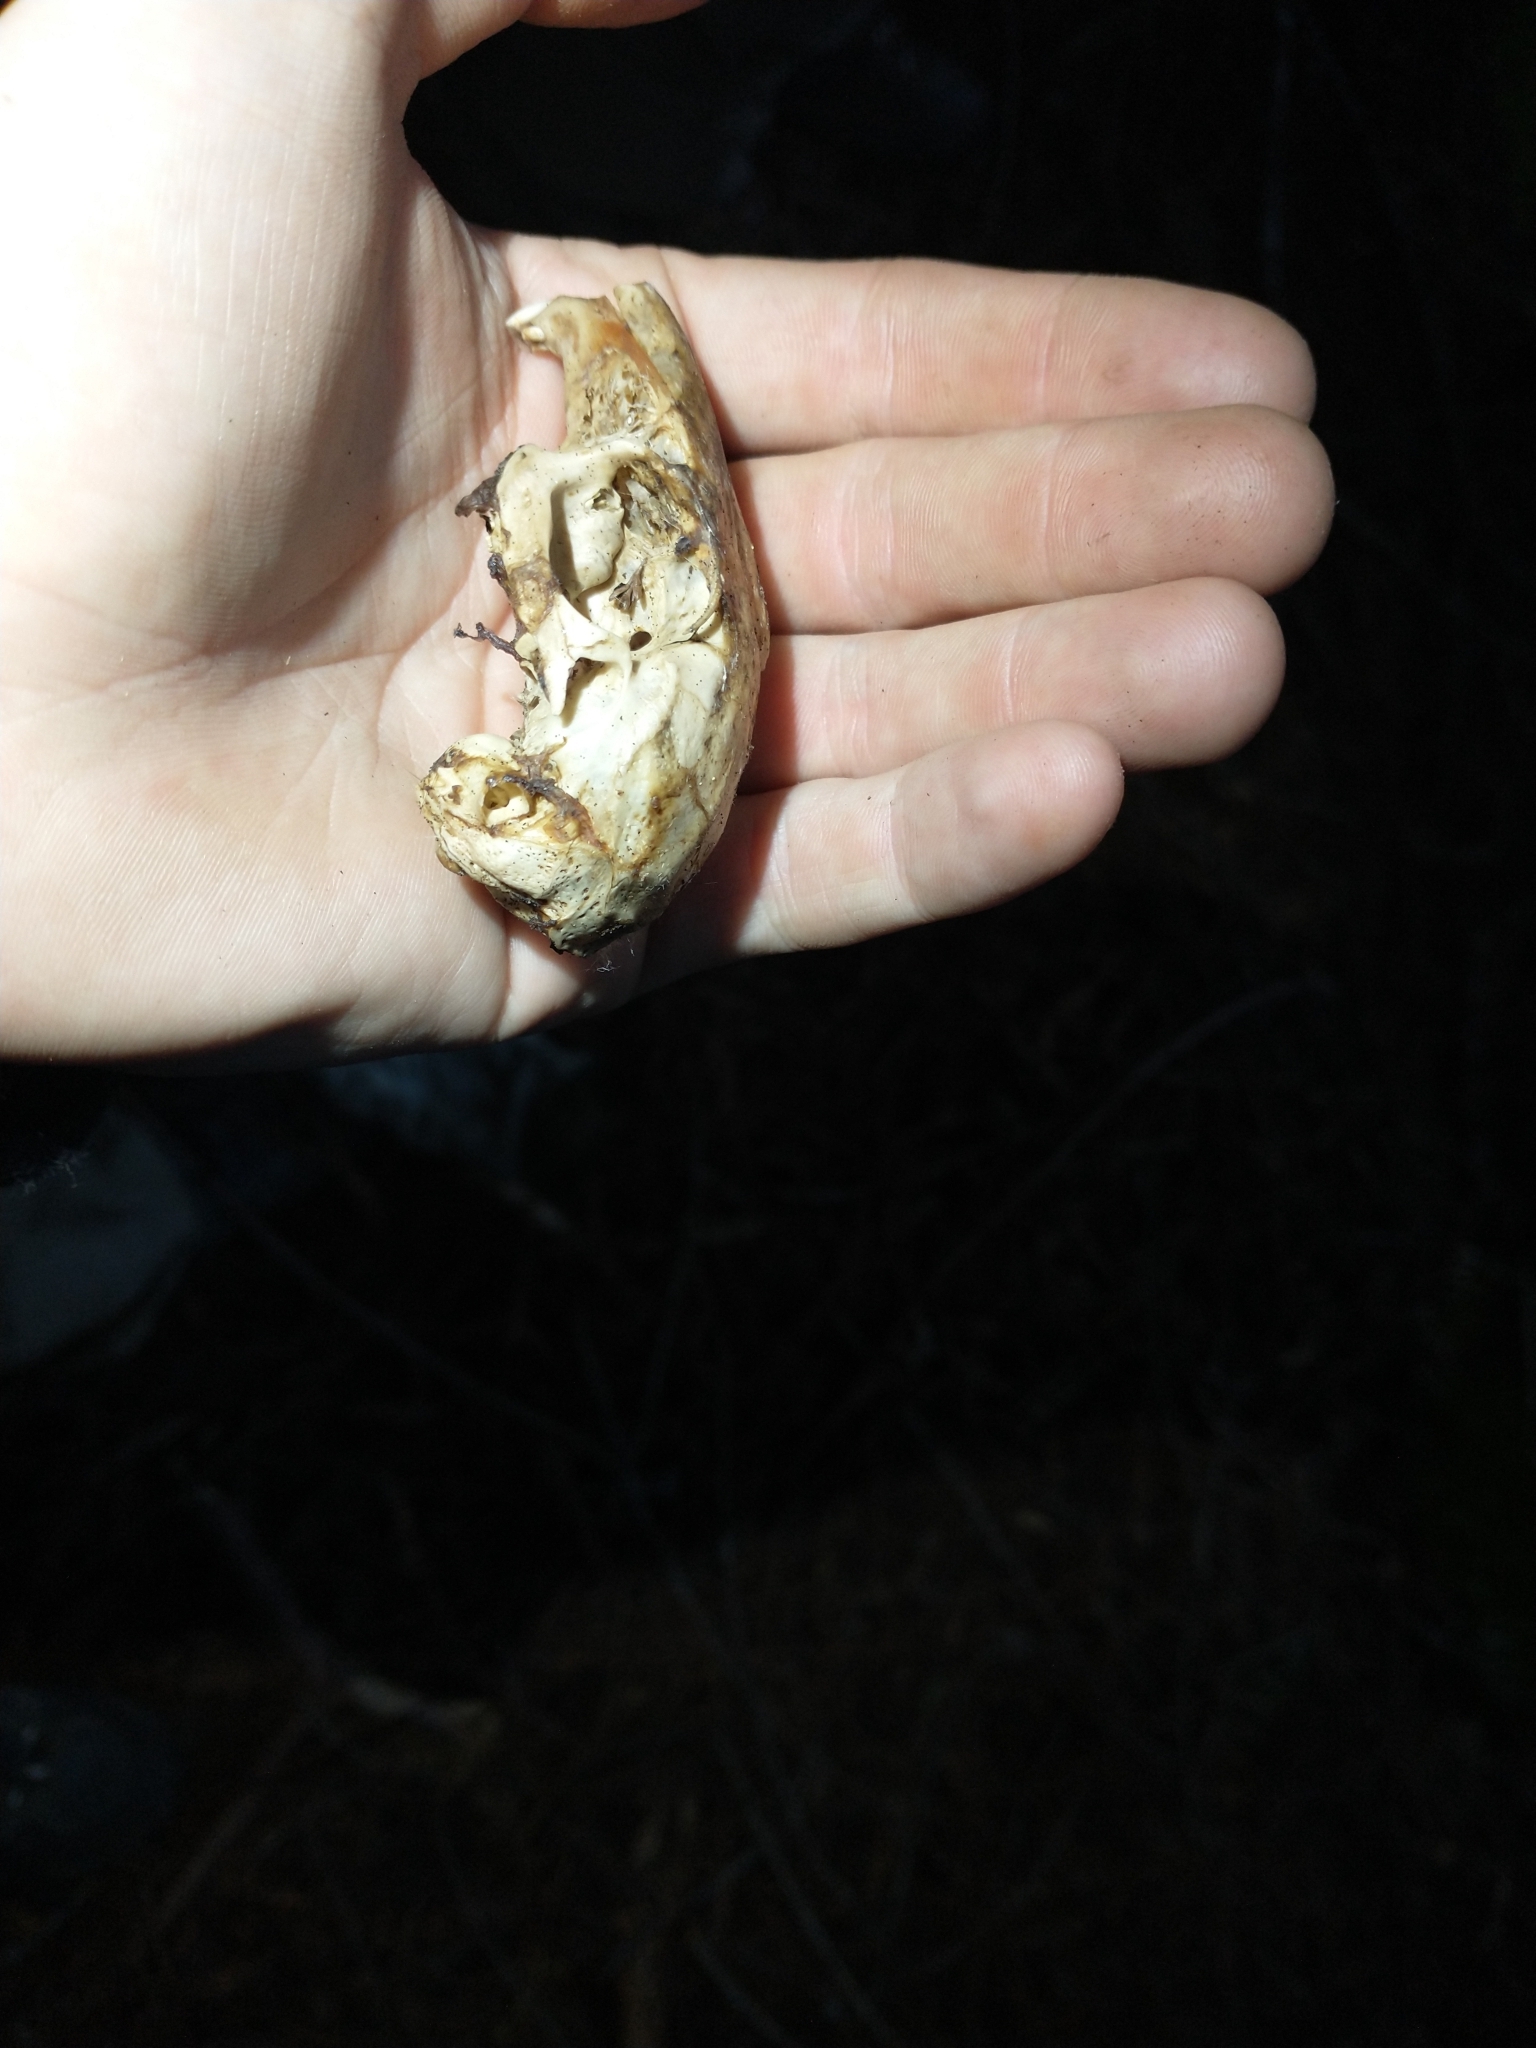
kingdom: Animalia
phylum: Chordata
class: Mammalia
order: Lagomorpha
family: Leporidae
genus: Sylvilagus
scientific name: Sylvilagus bachmani
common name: Brush rabbit
